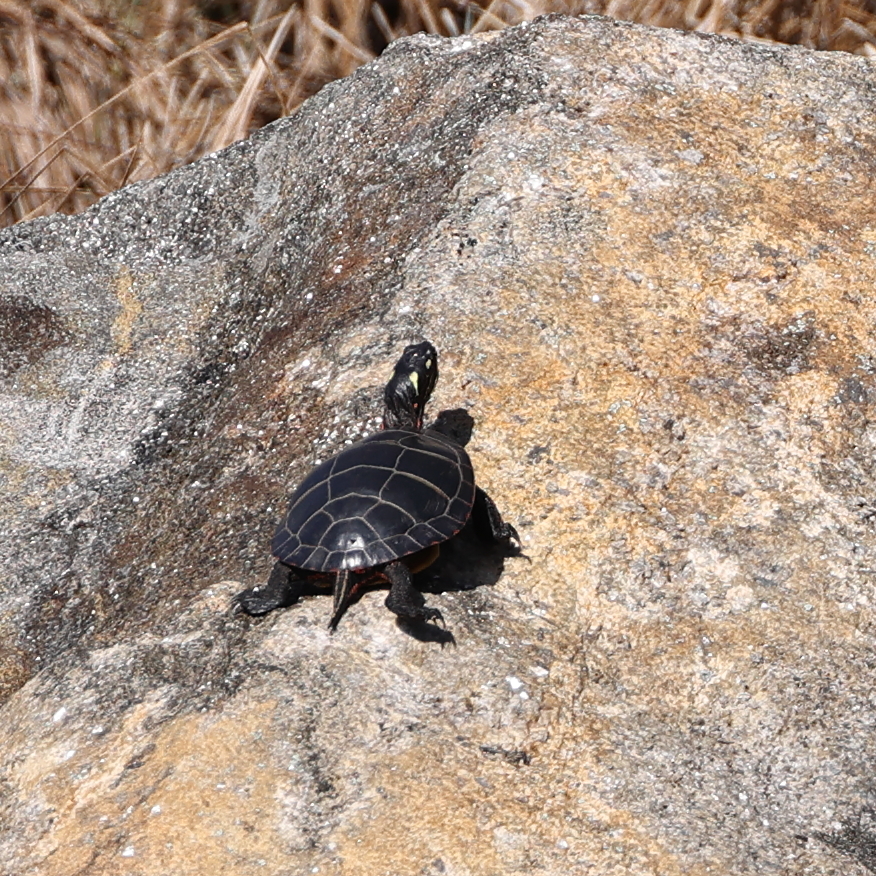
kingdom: Animalia
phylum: Chordata
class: Testudines
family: Emydidae
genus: Chrysemys
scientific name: Chrysemys picta
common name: Painted turtle
